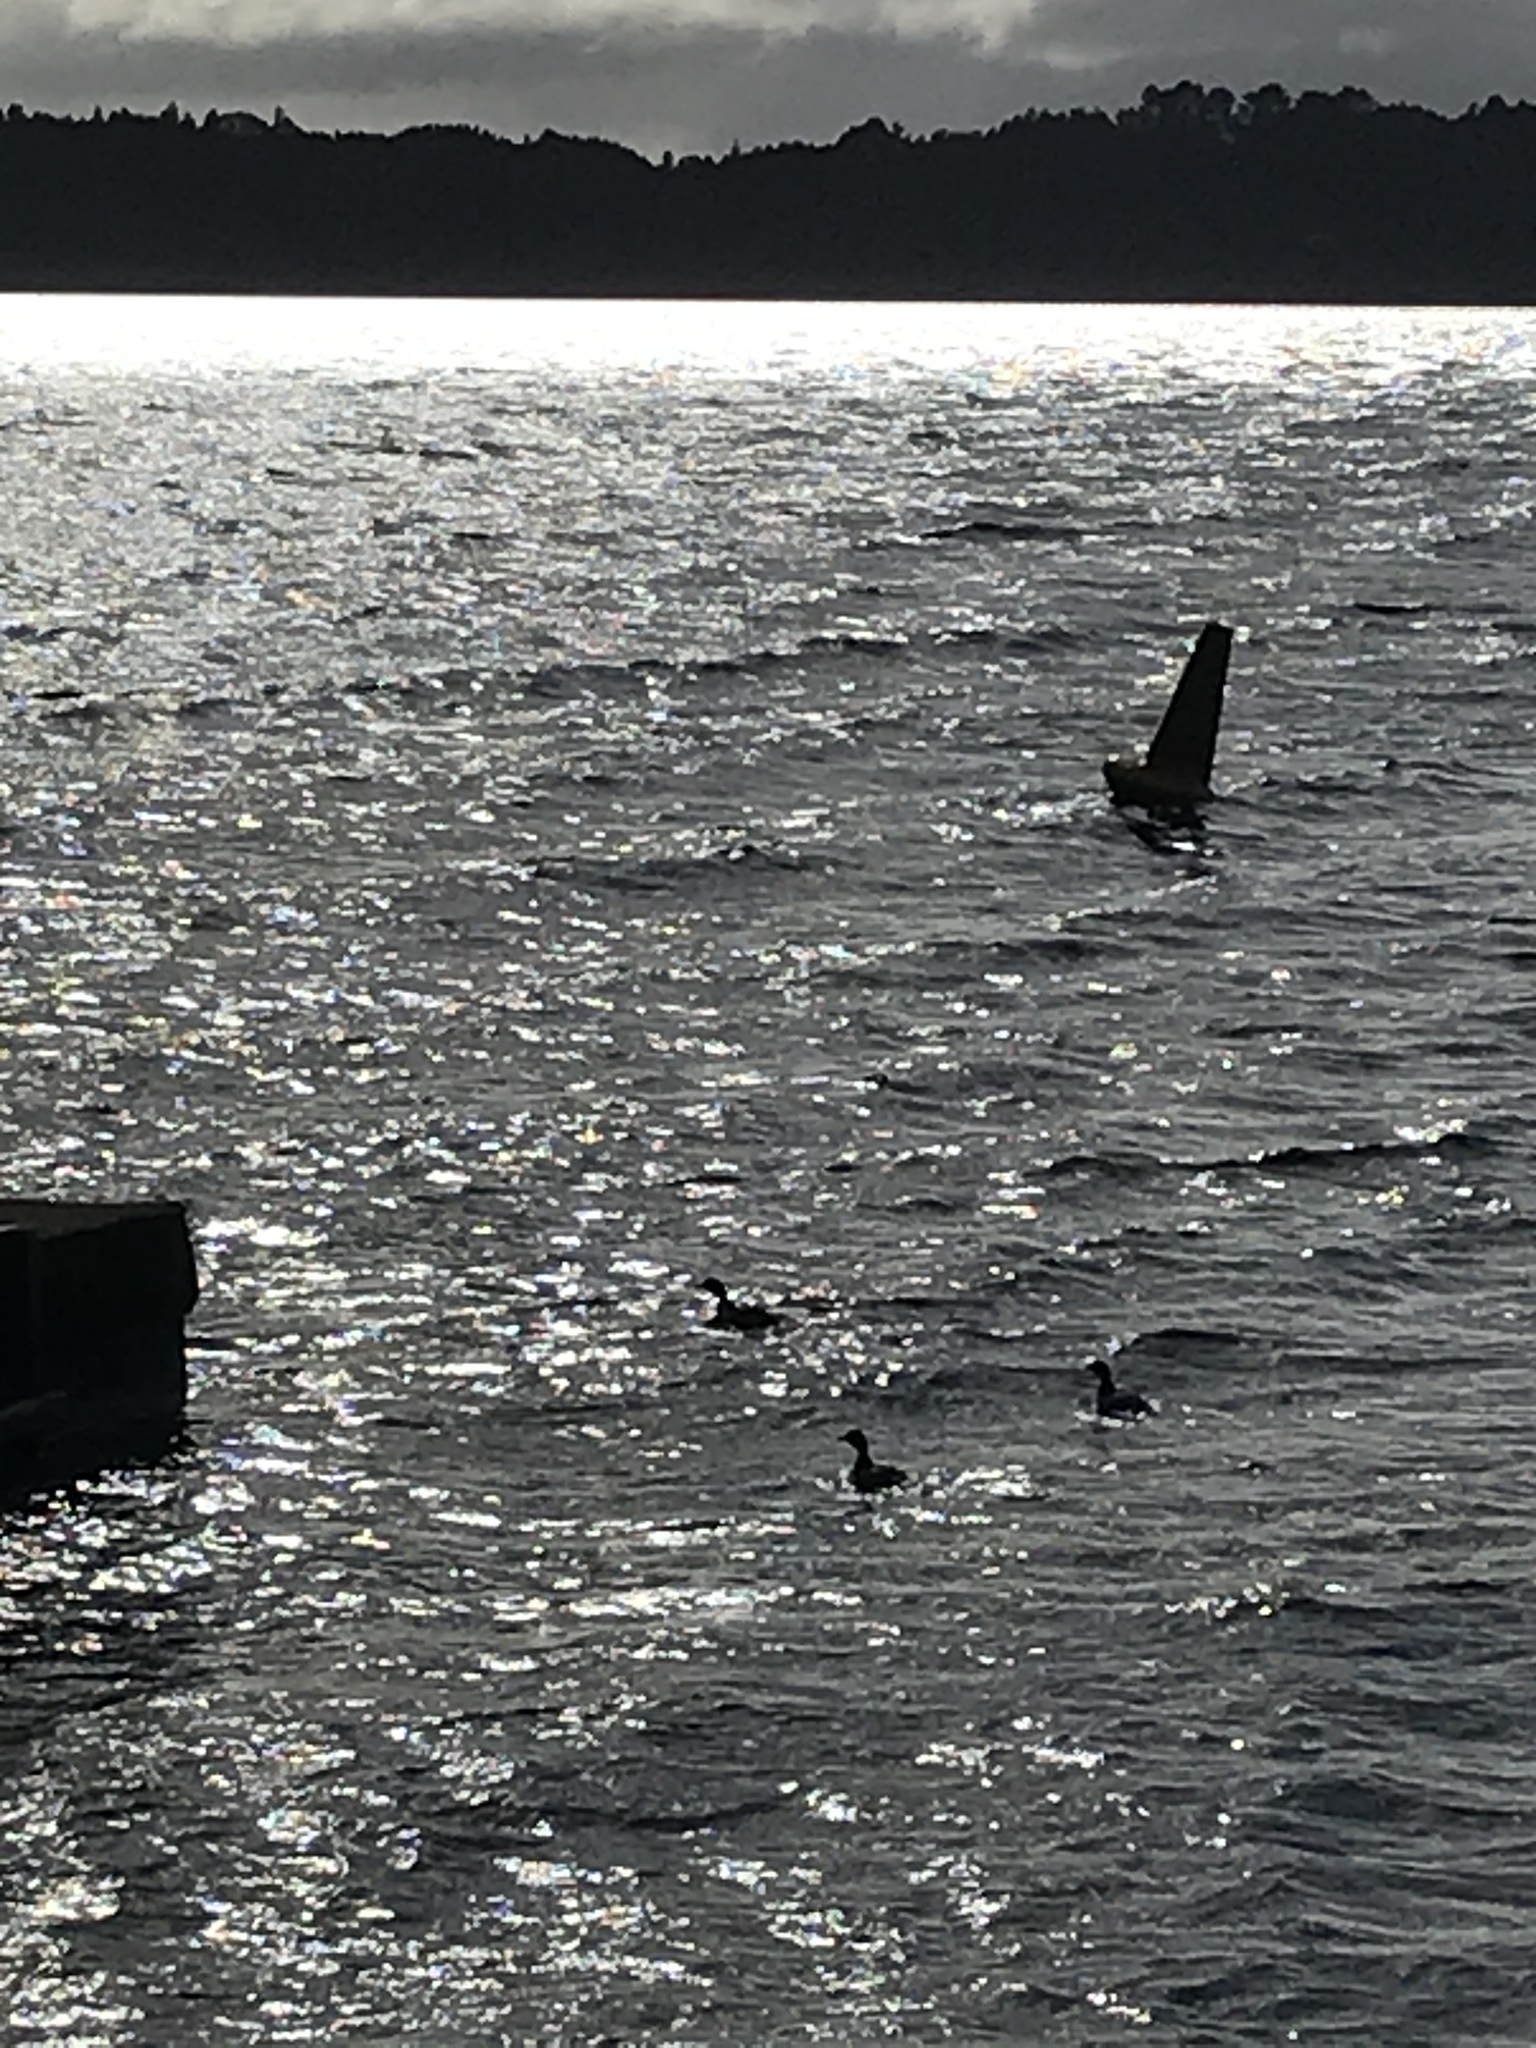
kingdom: Animalia
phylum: Chordata
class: Aves
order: Podicipediformes
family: Podicipedidae
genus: Poliocephalus
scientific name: Poliocephalus rufopectus
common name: New zealand grebe
